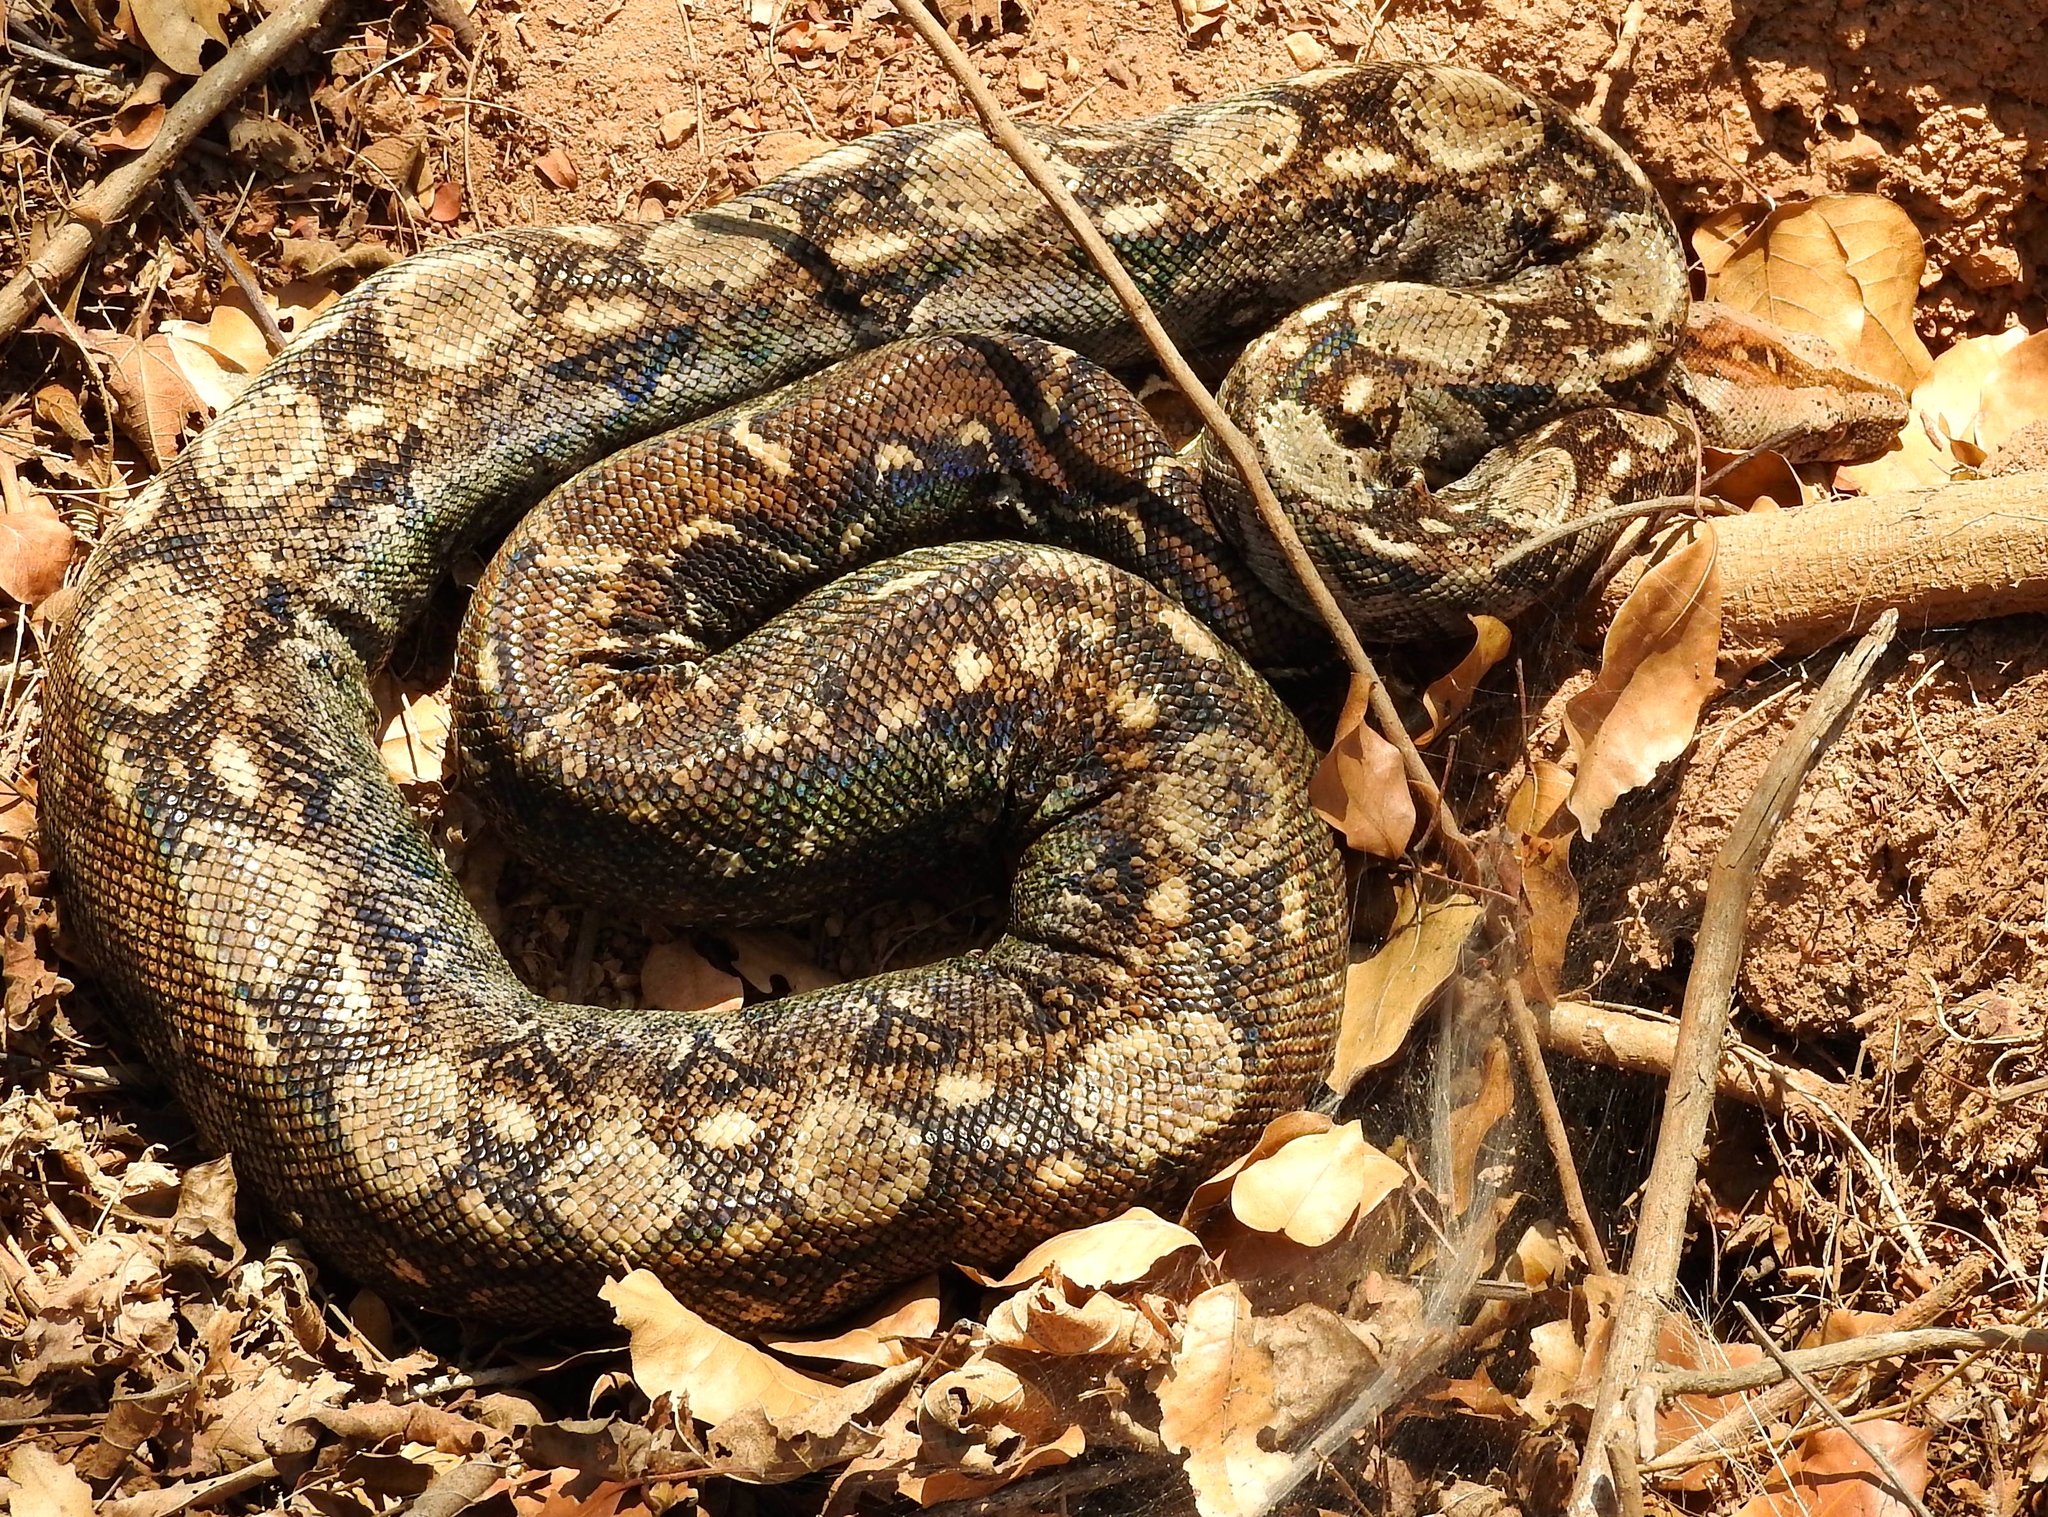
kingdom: Animalia
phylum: Chordata
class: Squamata
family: Boidae
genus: Boa
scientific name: Boa
